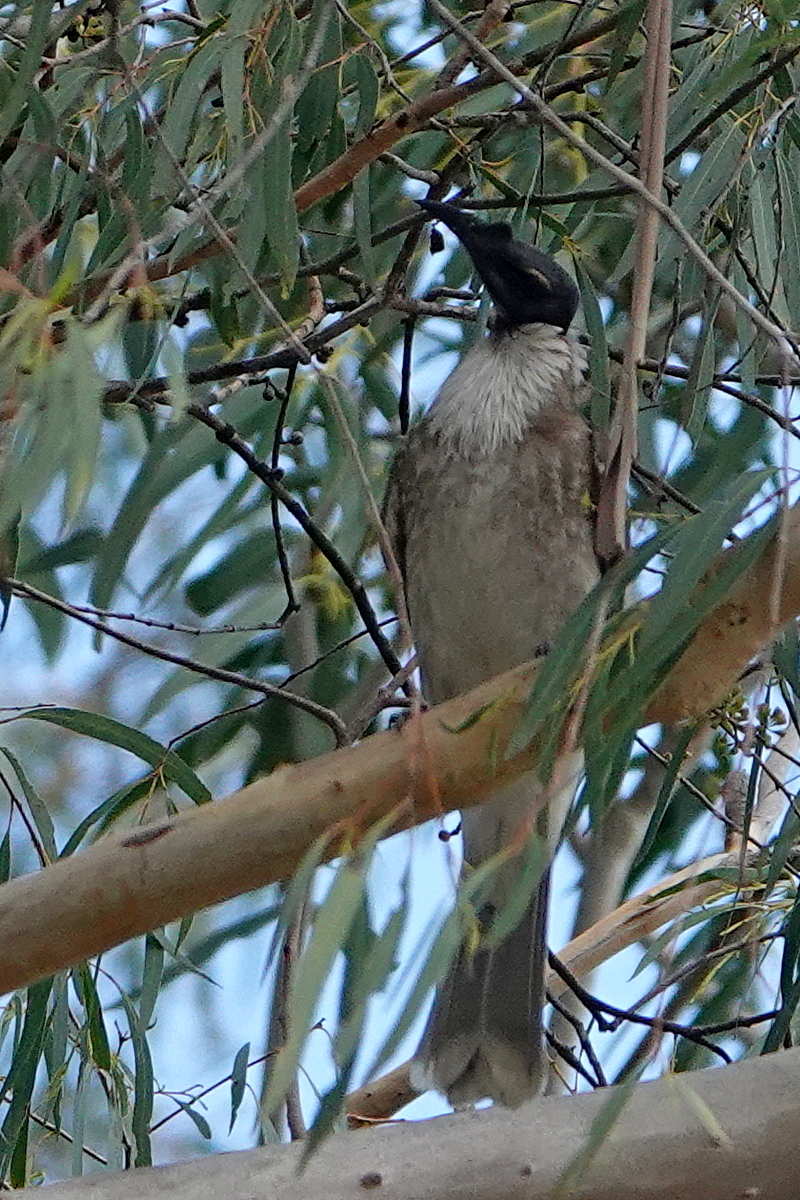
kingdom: Animalia
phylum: Chordata
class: Aves
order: Passeriformes
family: Meliphagidae
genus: Philemon
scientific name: Philemon corniculatus
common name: Noisy friarbird
